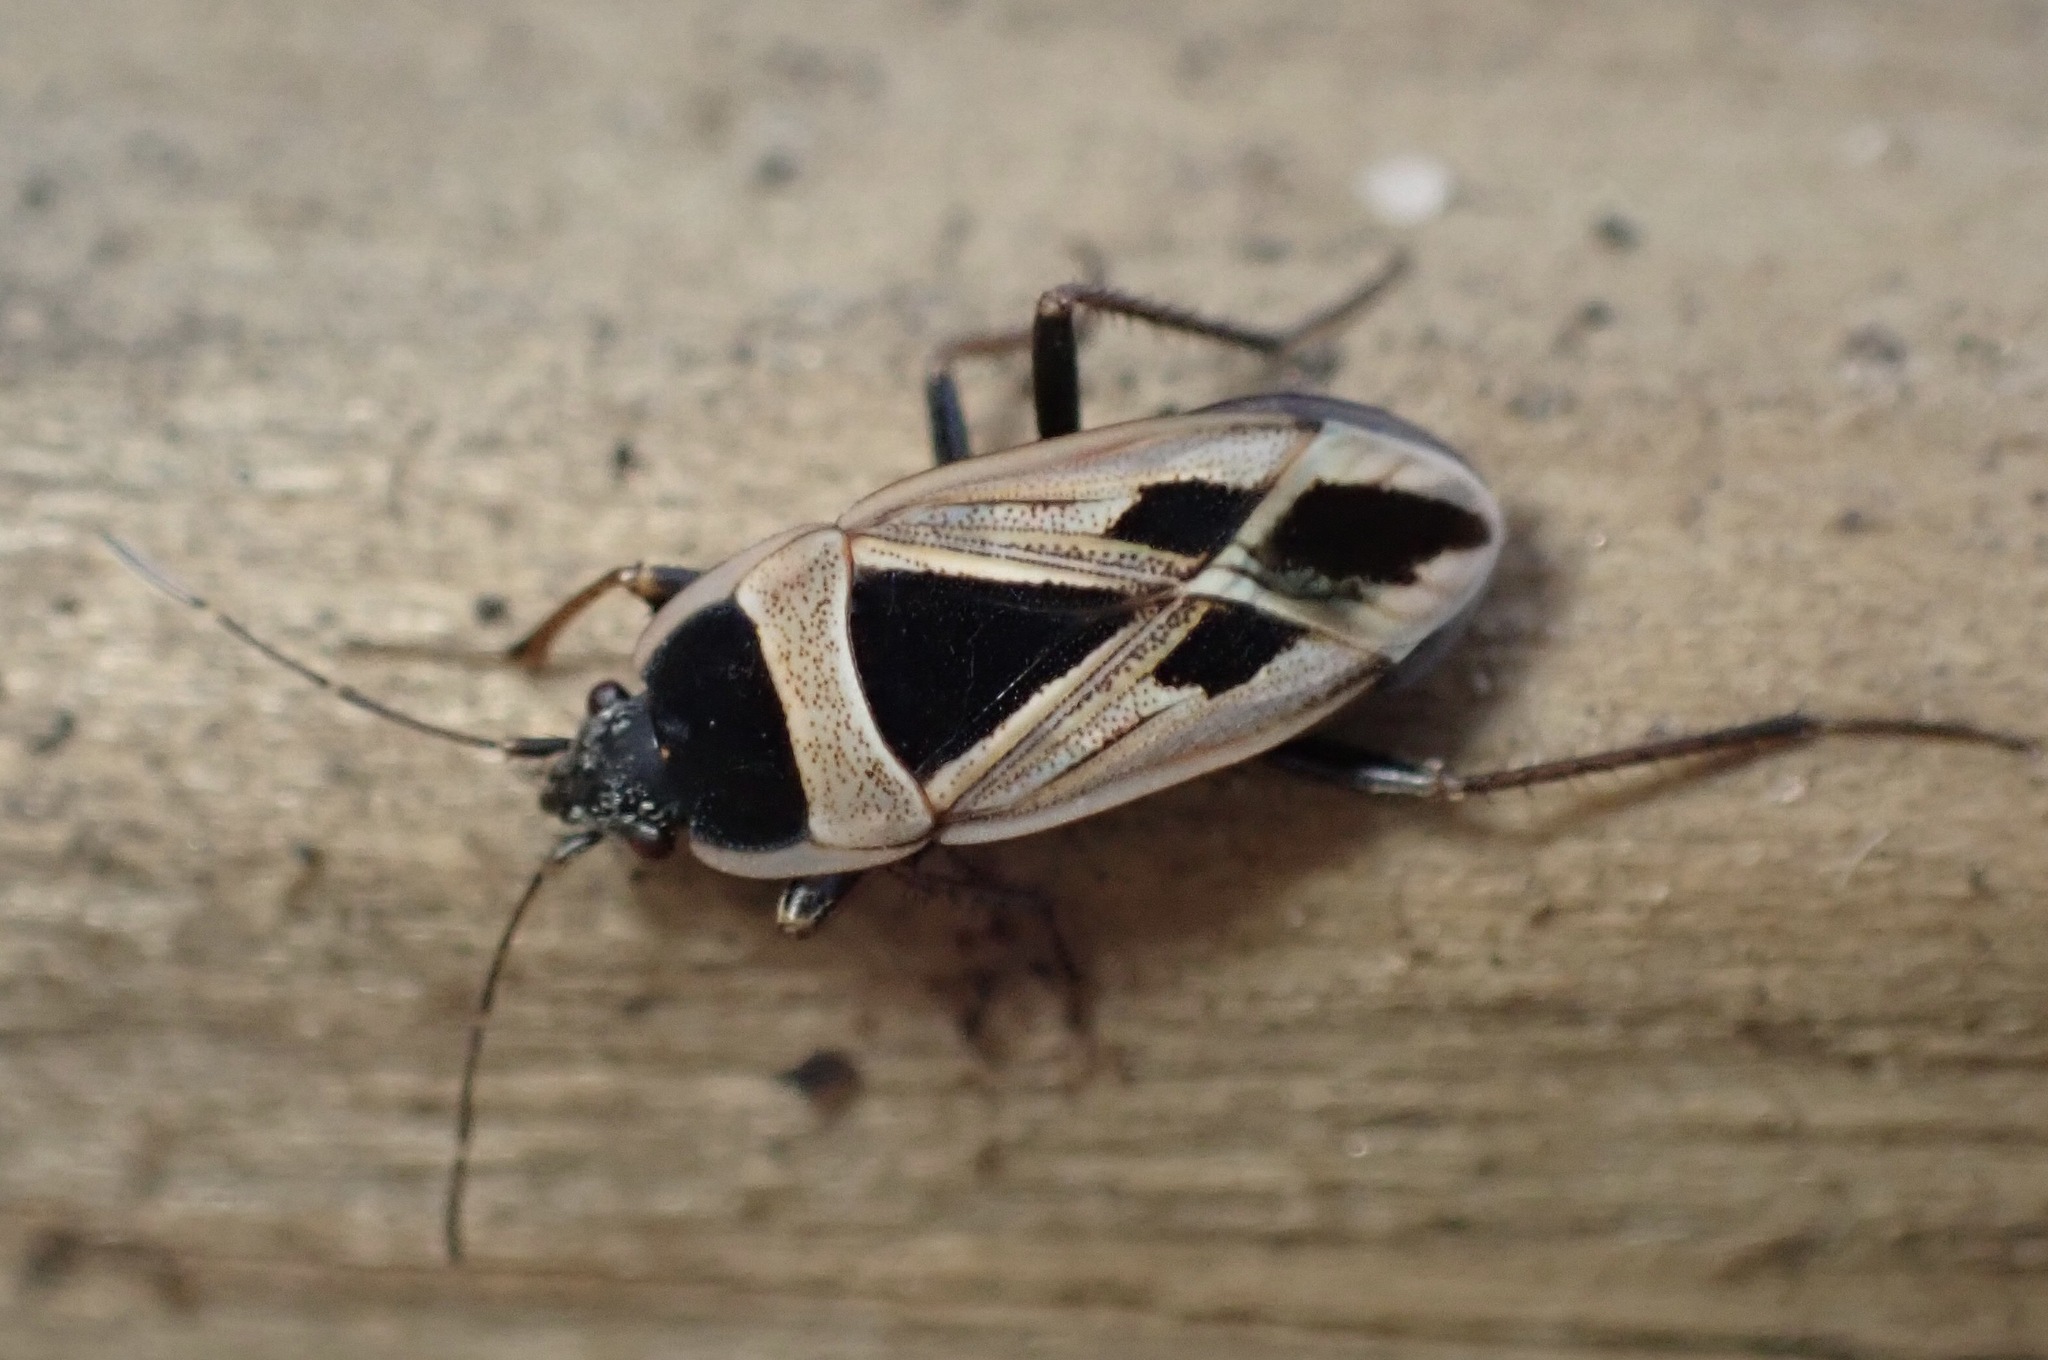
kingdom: Animalia
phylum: Arthropoda
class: Insecta
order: Hemiptera
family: Rhyparochromidae
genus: Xanthochilus
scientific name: Xanthochilus saturnius
